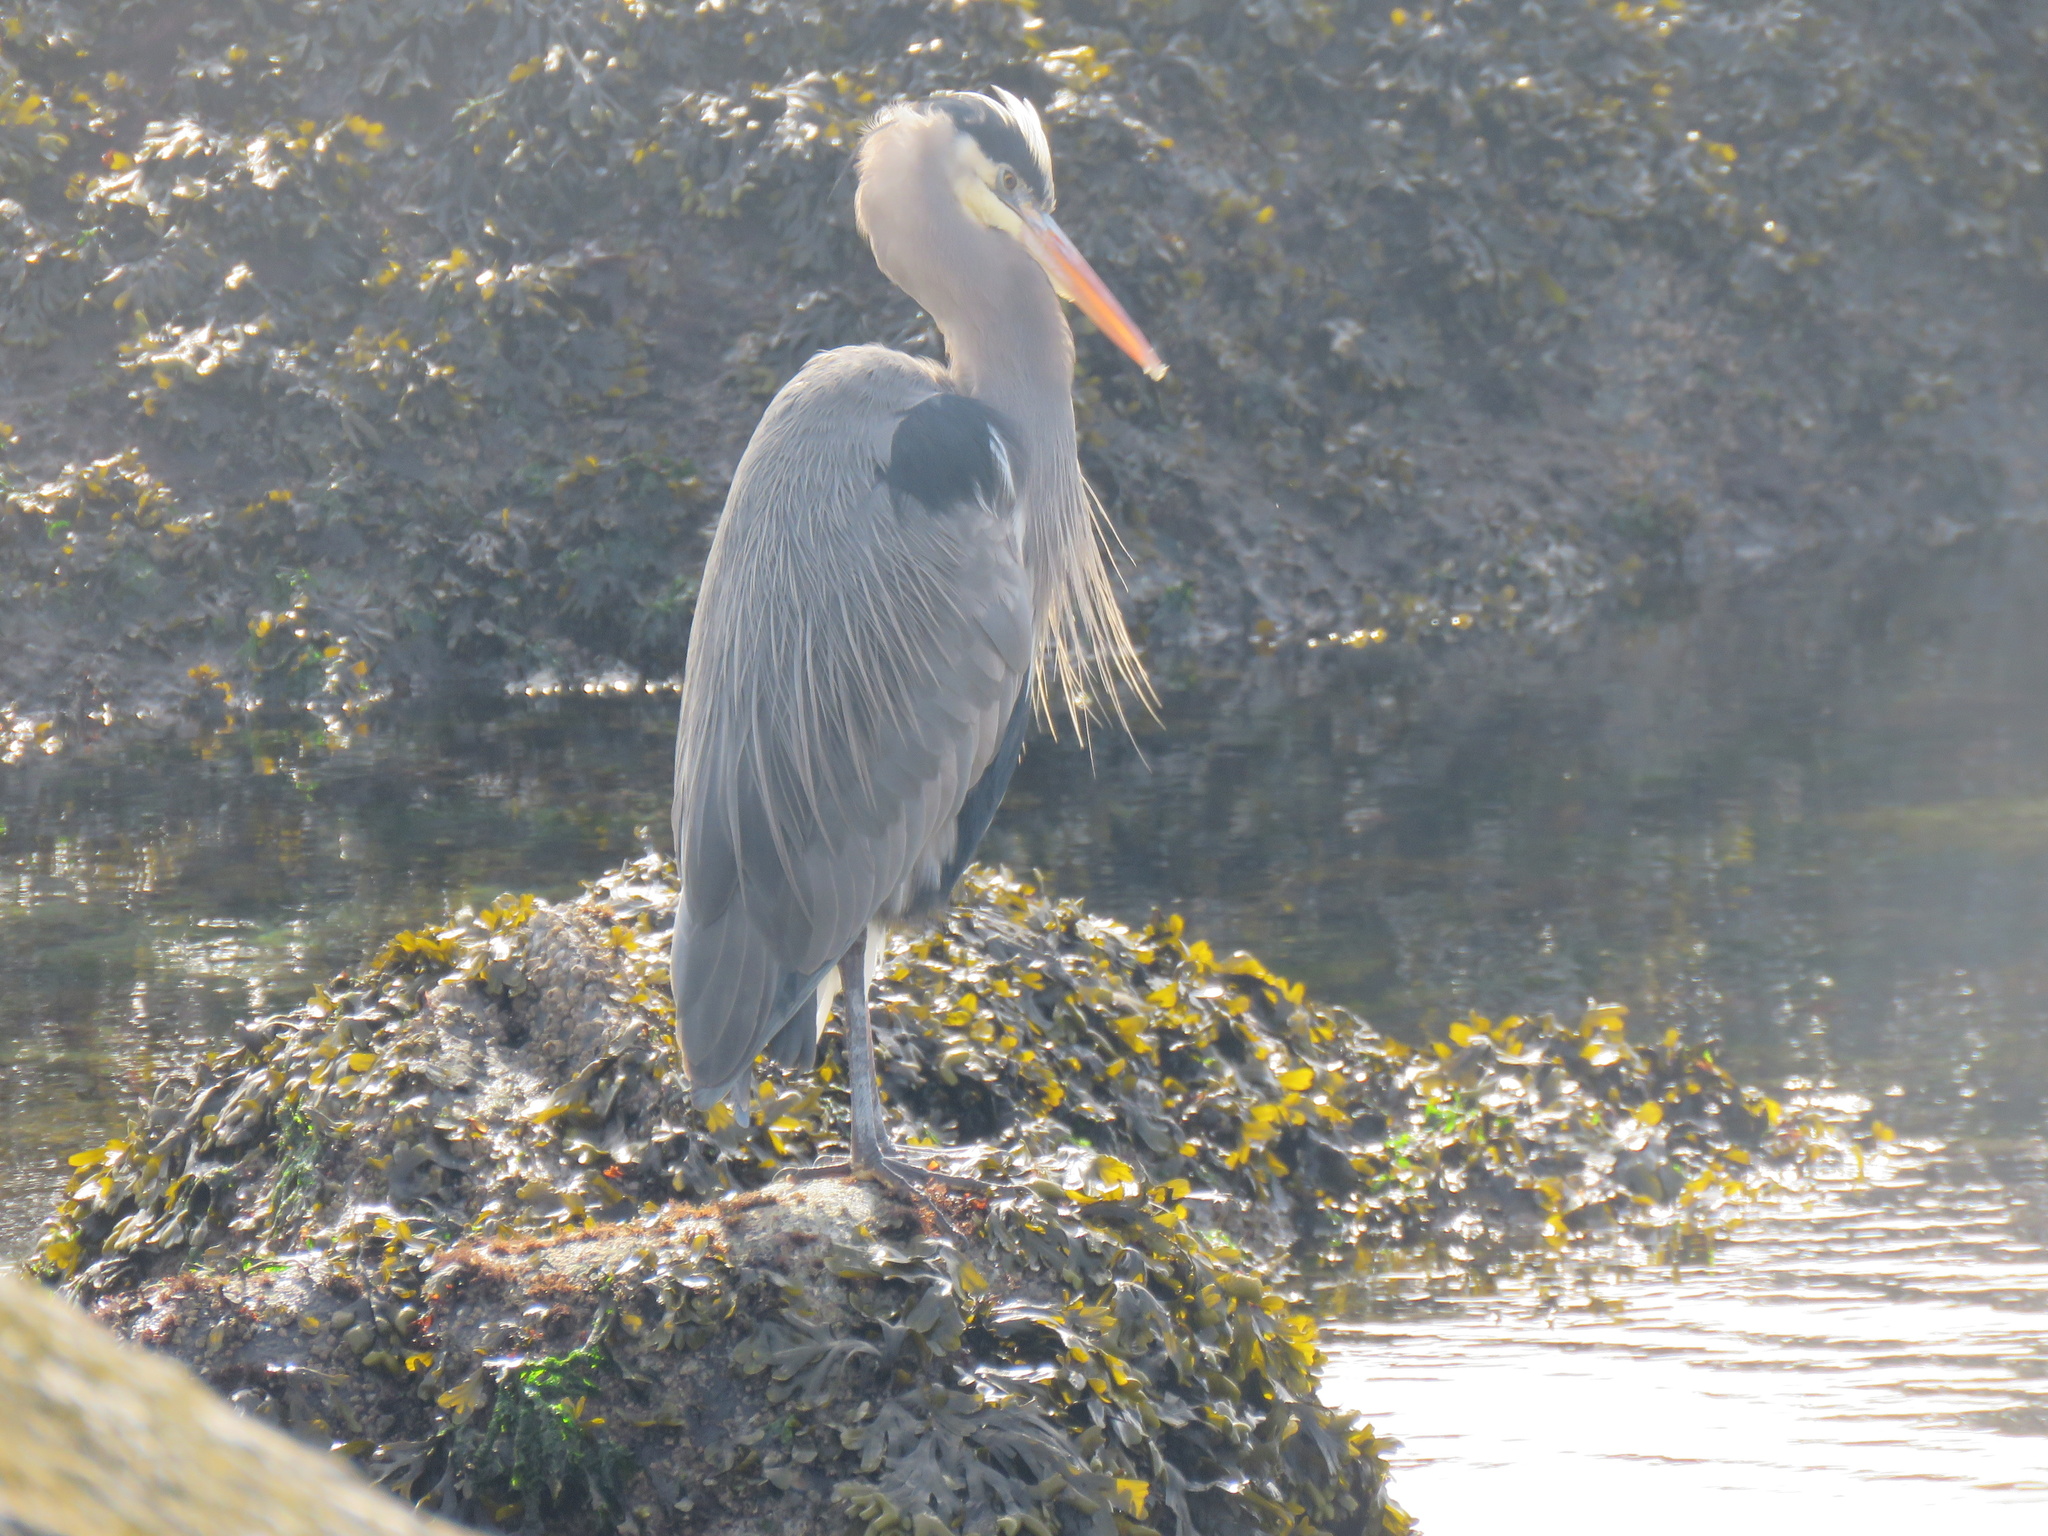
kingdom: Animalia
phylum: Chordata
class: Aves
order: Pelecaniformes
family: Ardeidae
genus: Ardea
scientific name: Ardea herodias
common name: Great blue heron
